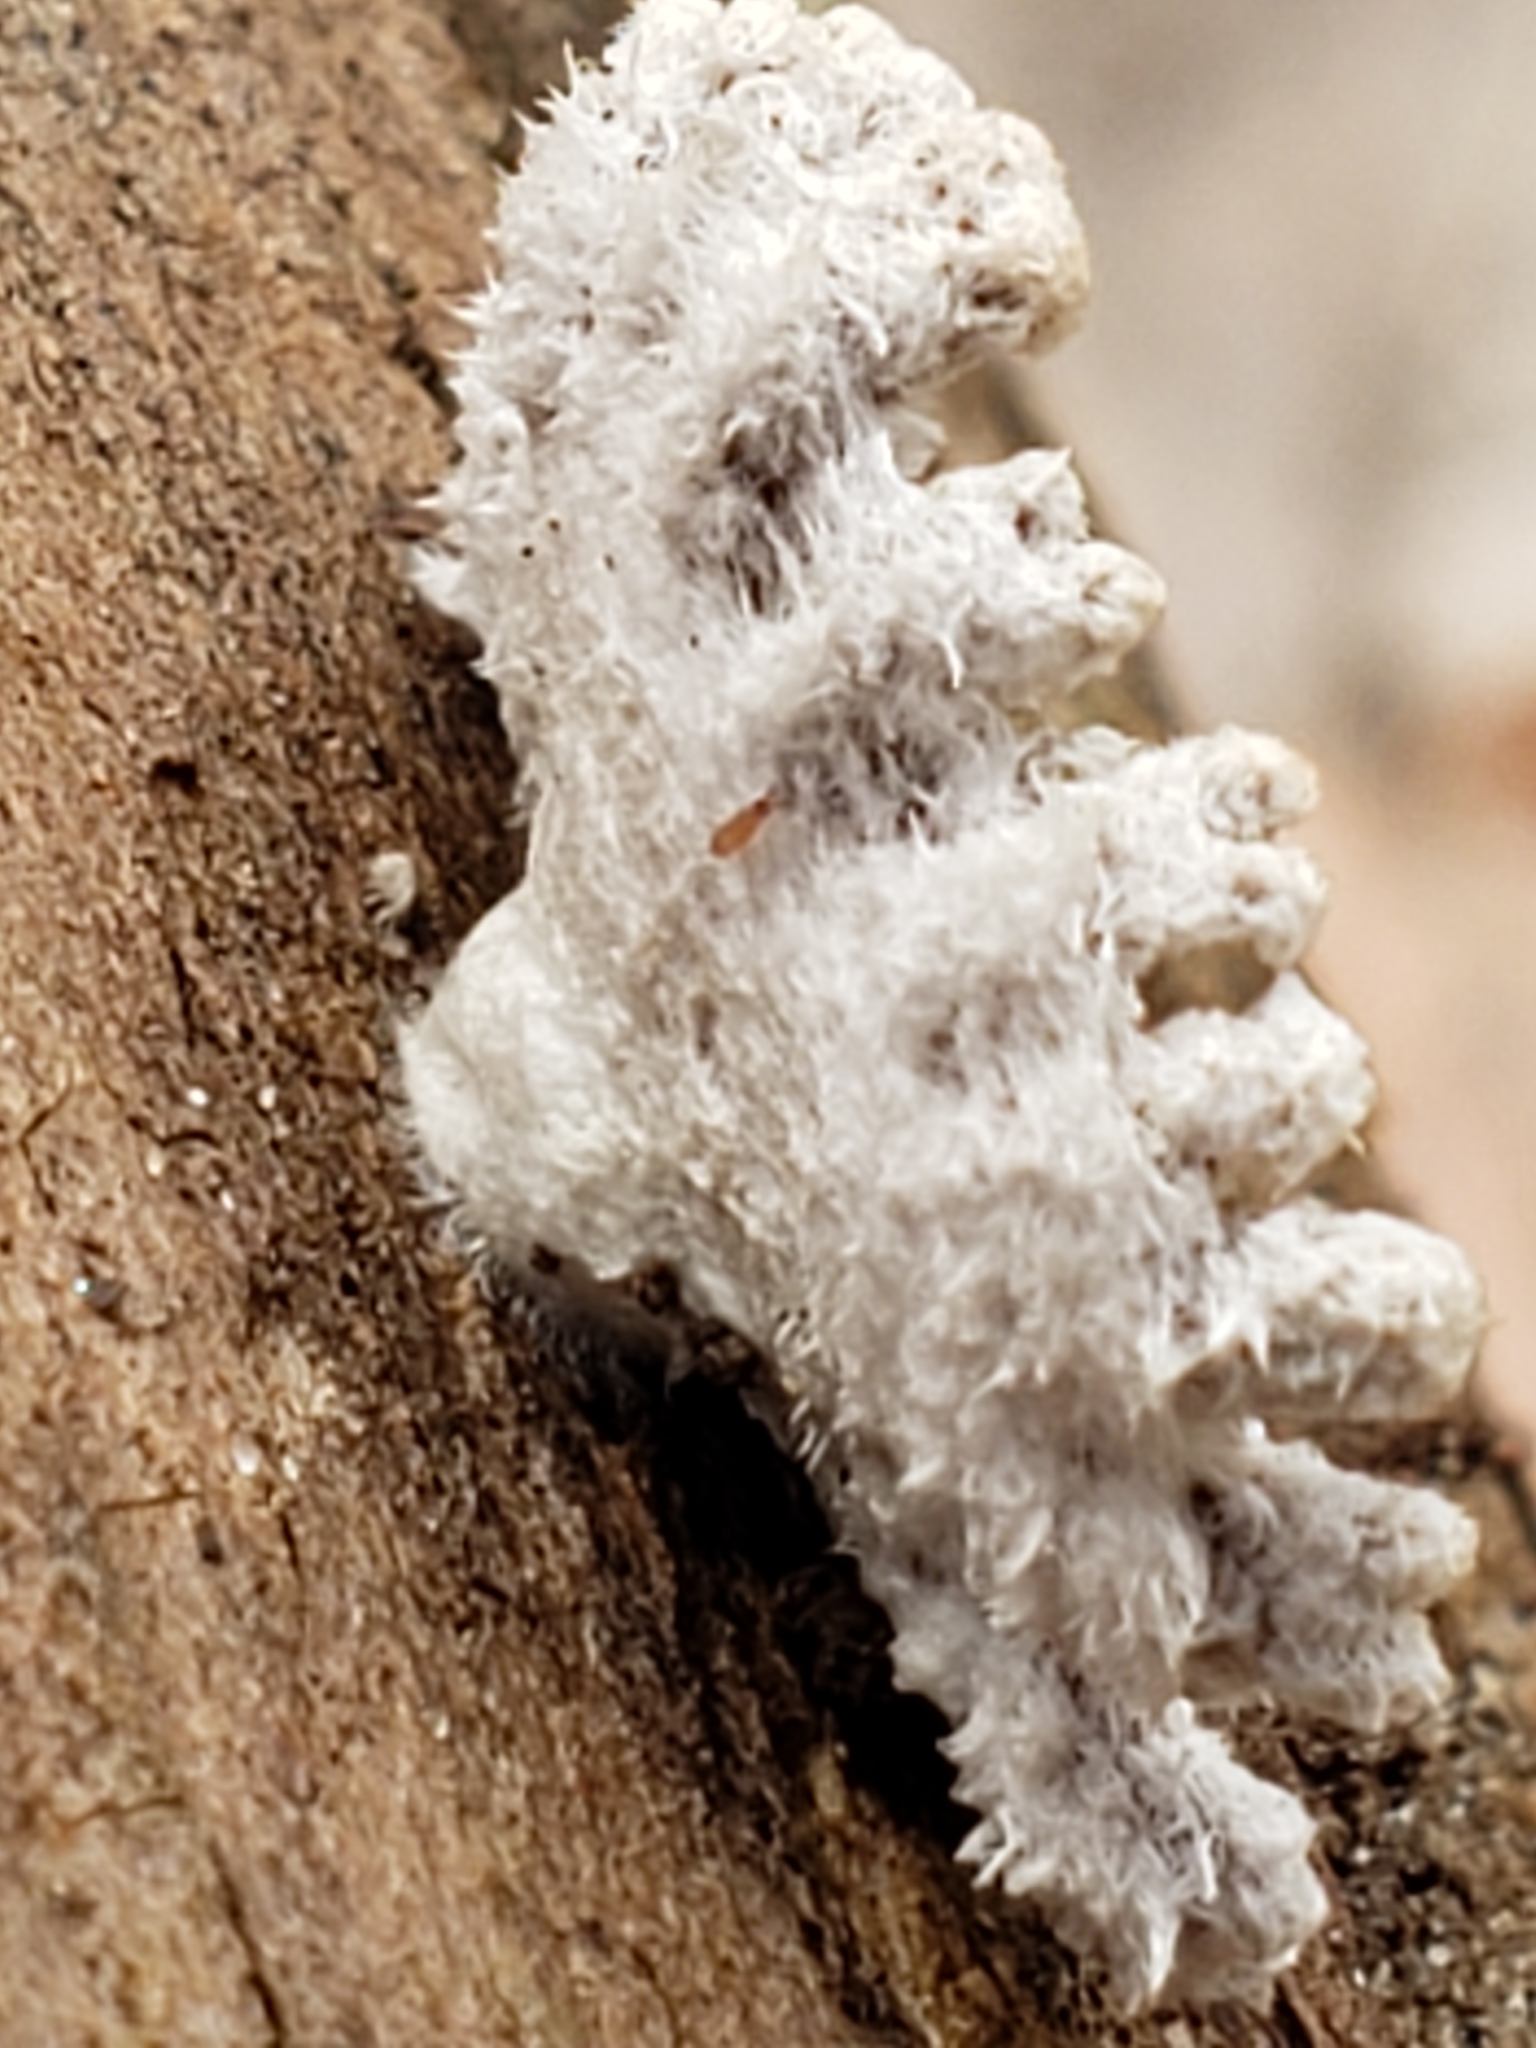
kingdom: Fungi
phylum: Basidiomycota
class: Agaricomycetes
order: Agaricales
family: Schizophyllaceae
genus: Schizophyllum
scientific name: Schizophyllum commune
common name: Common porecrust
